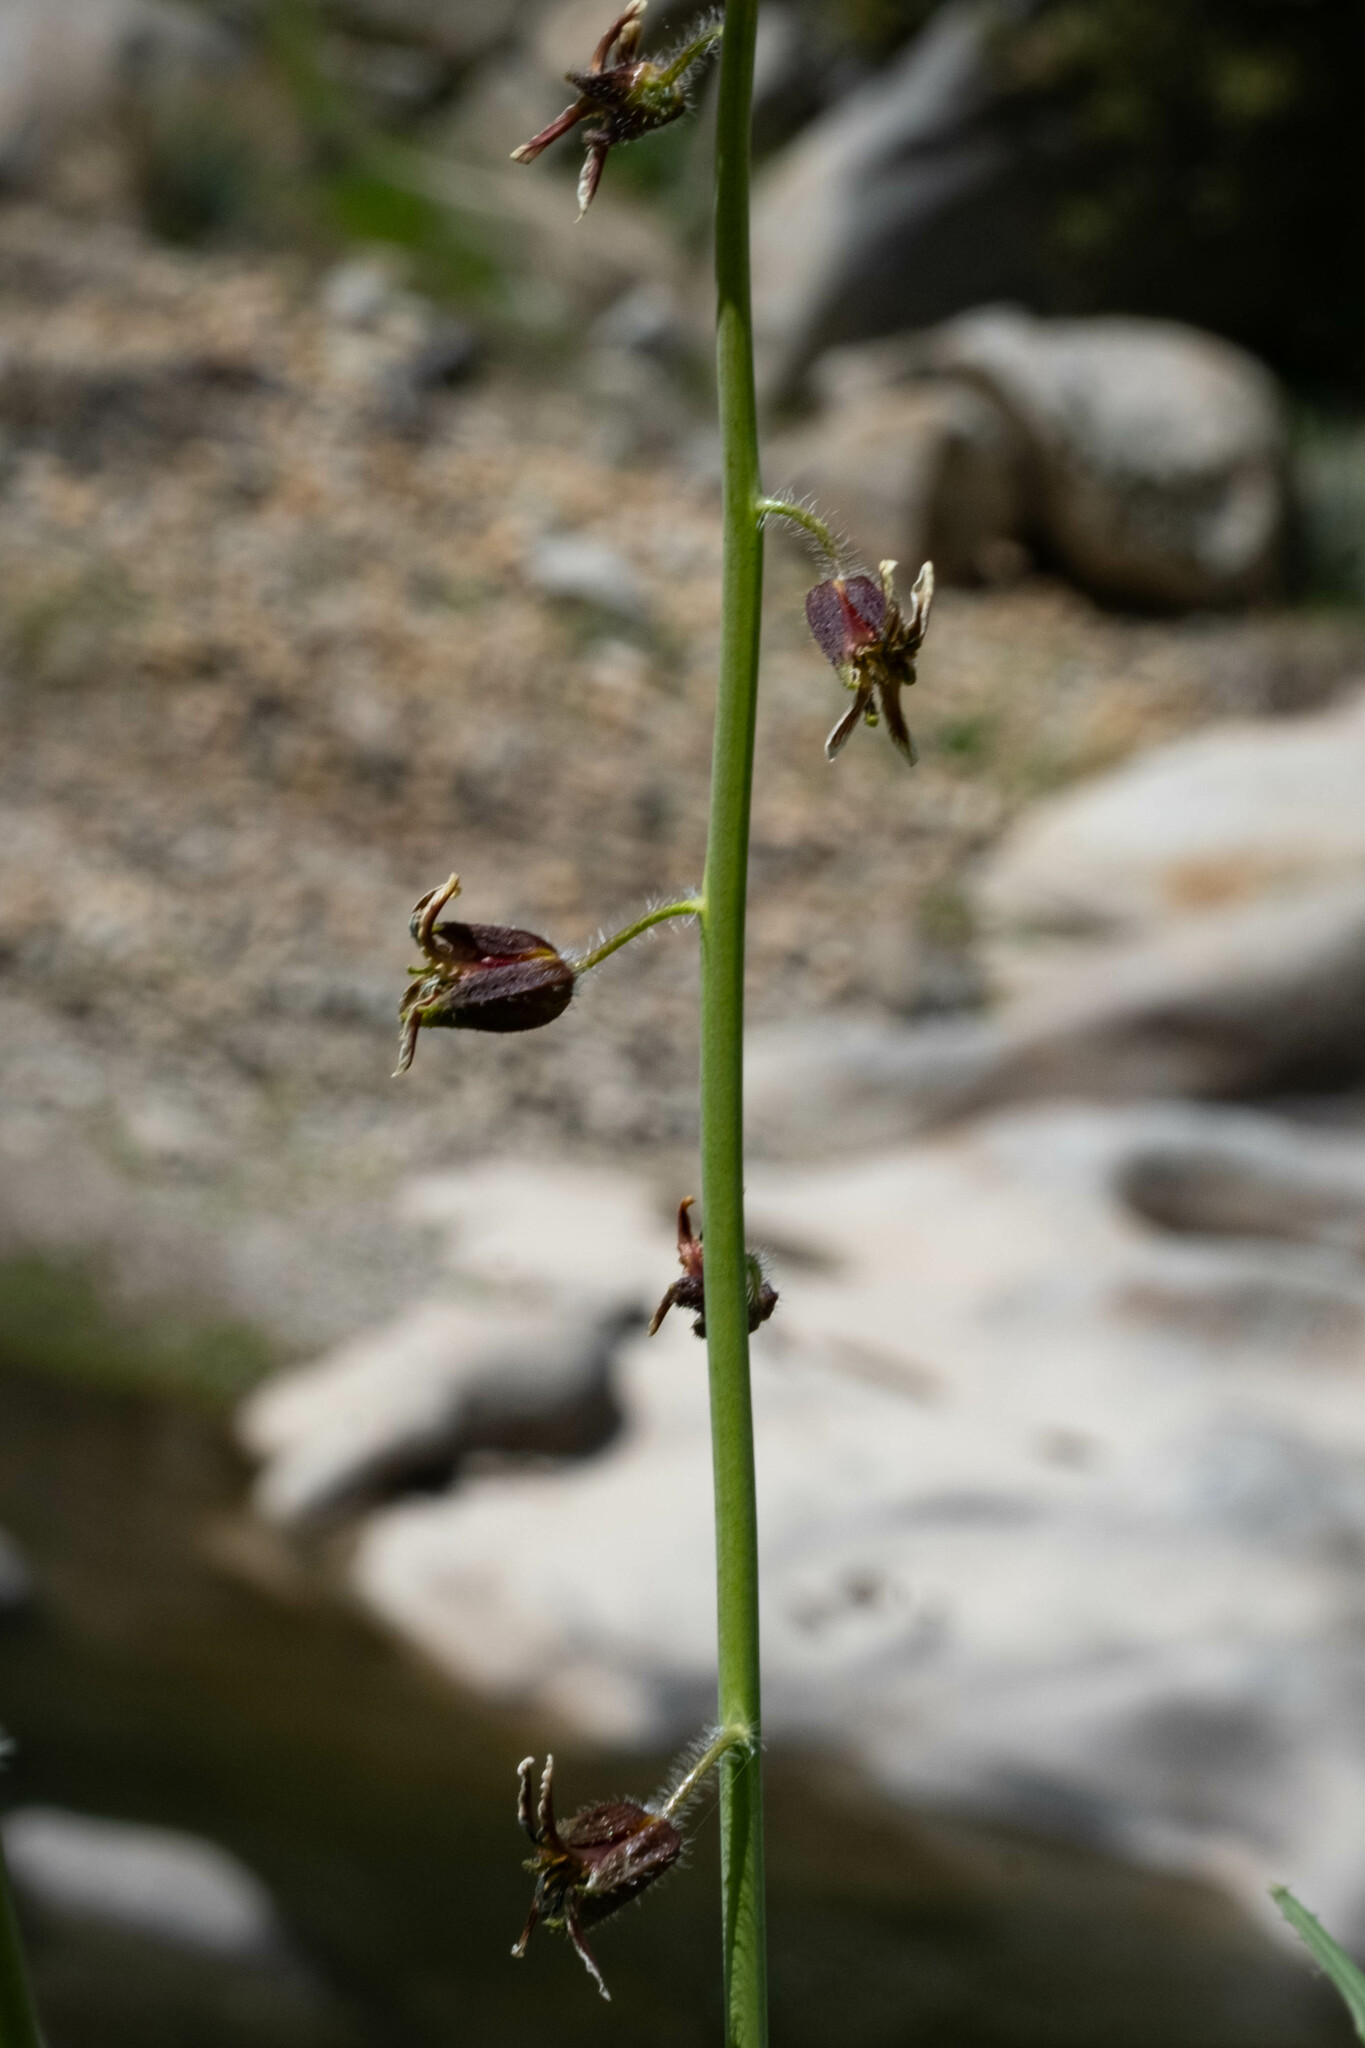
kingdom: Plantae
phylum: Tracheophyta
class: Magnoliopsida
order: Brassicales
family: Brassicaceae
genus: Streptanthus
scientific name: Streptanthus coulteri
